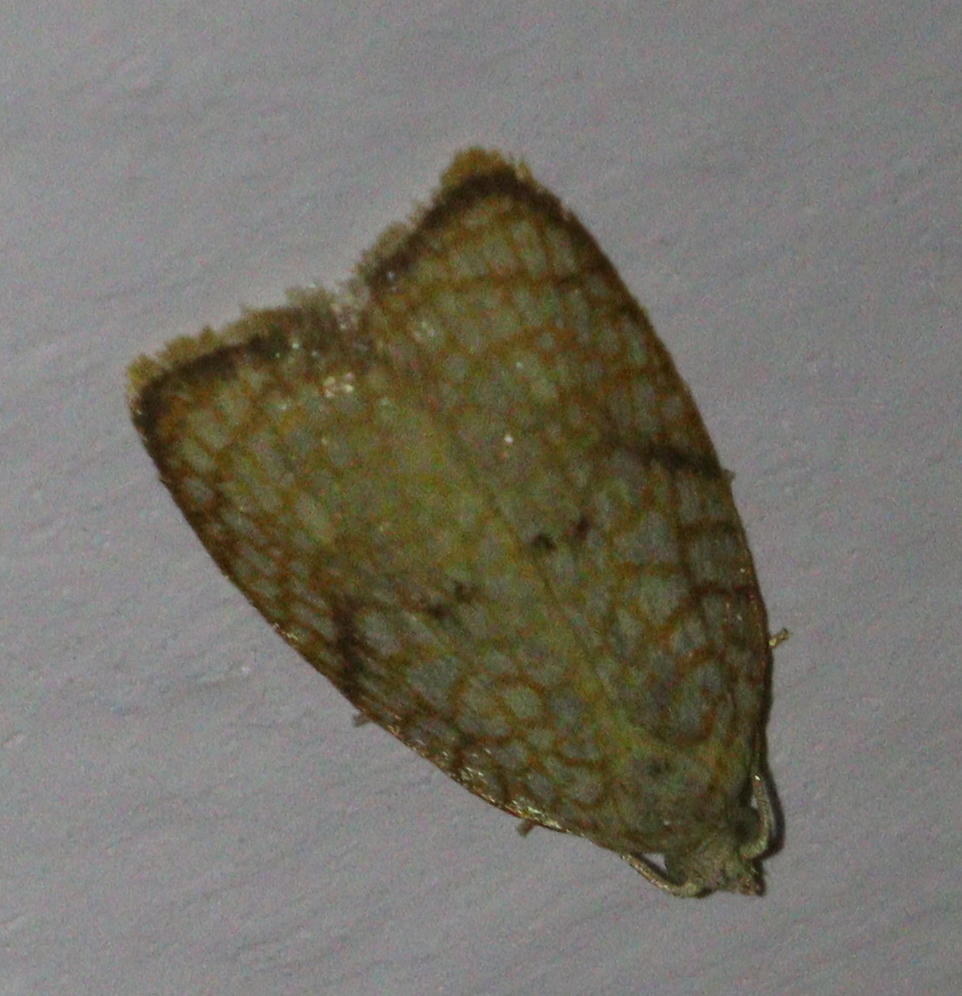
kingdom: Animalia
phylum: Arthropoda
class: Insecta
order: Lepidoptera
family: Tortricidae
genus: Acleris
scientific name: Acleris forsskaleana
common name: Maple button
